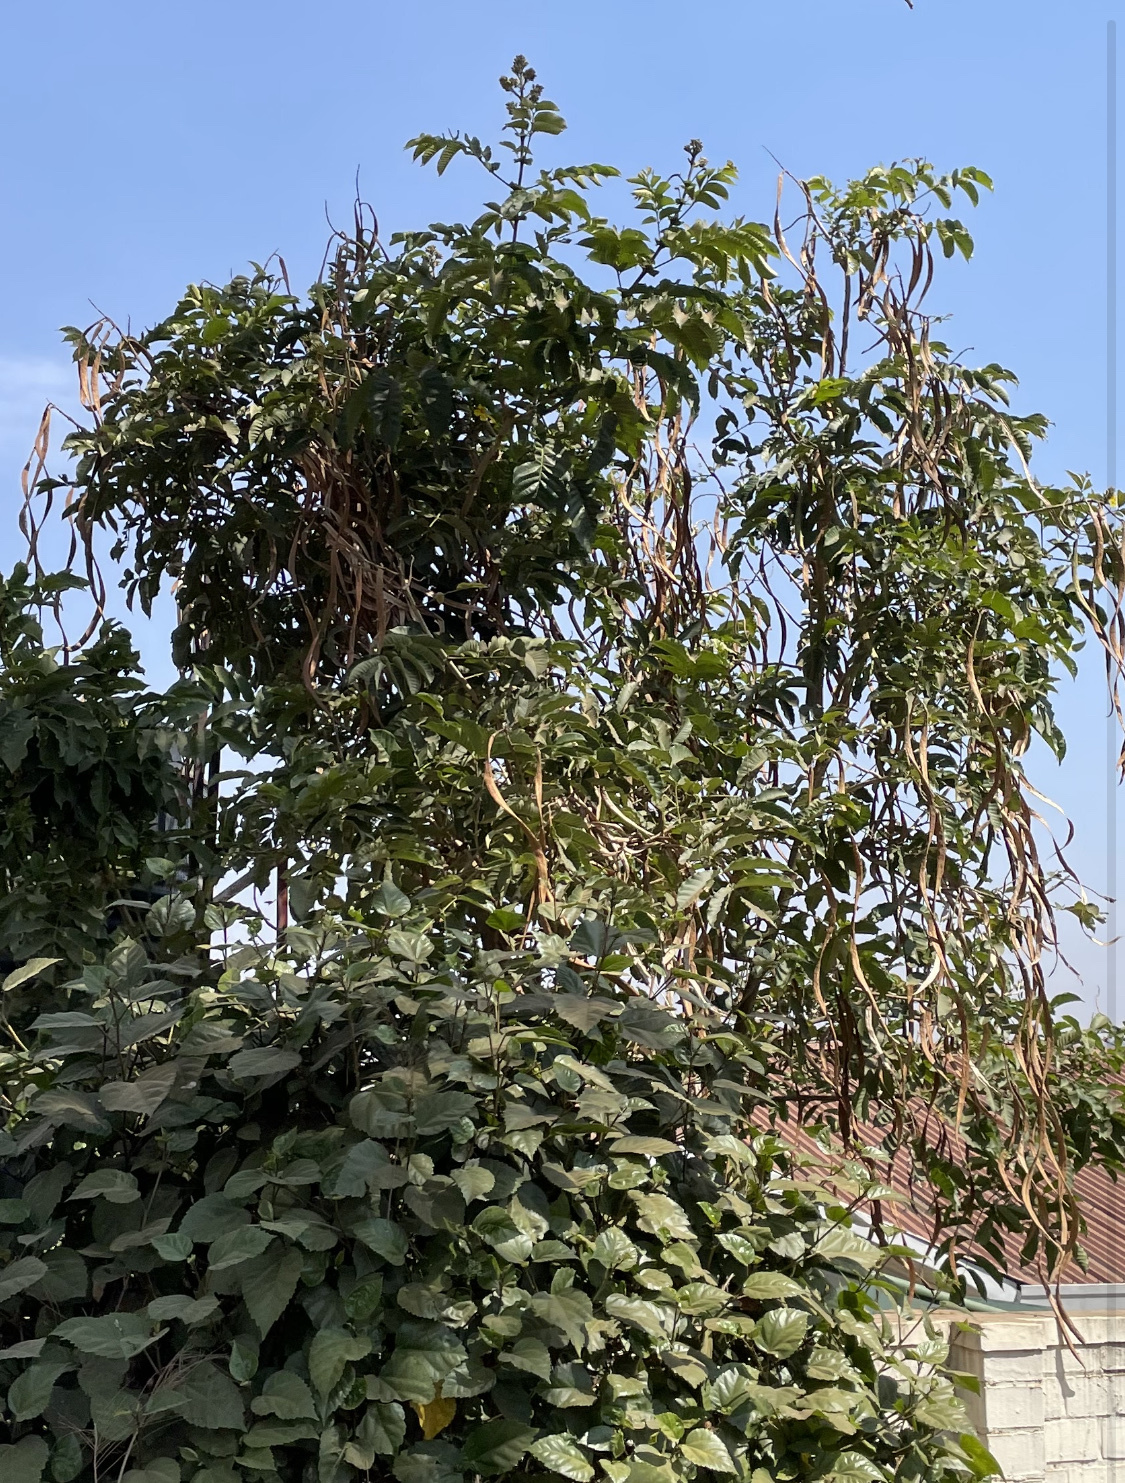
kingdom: Plantae
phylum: Tracheophyta
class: Magnoliopsida
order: Lamiales
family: Bignoniaceae
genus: Markhamia
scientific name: Markhamia lutea
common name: Siala
